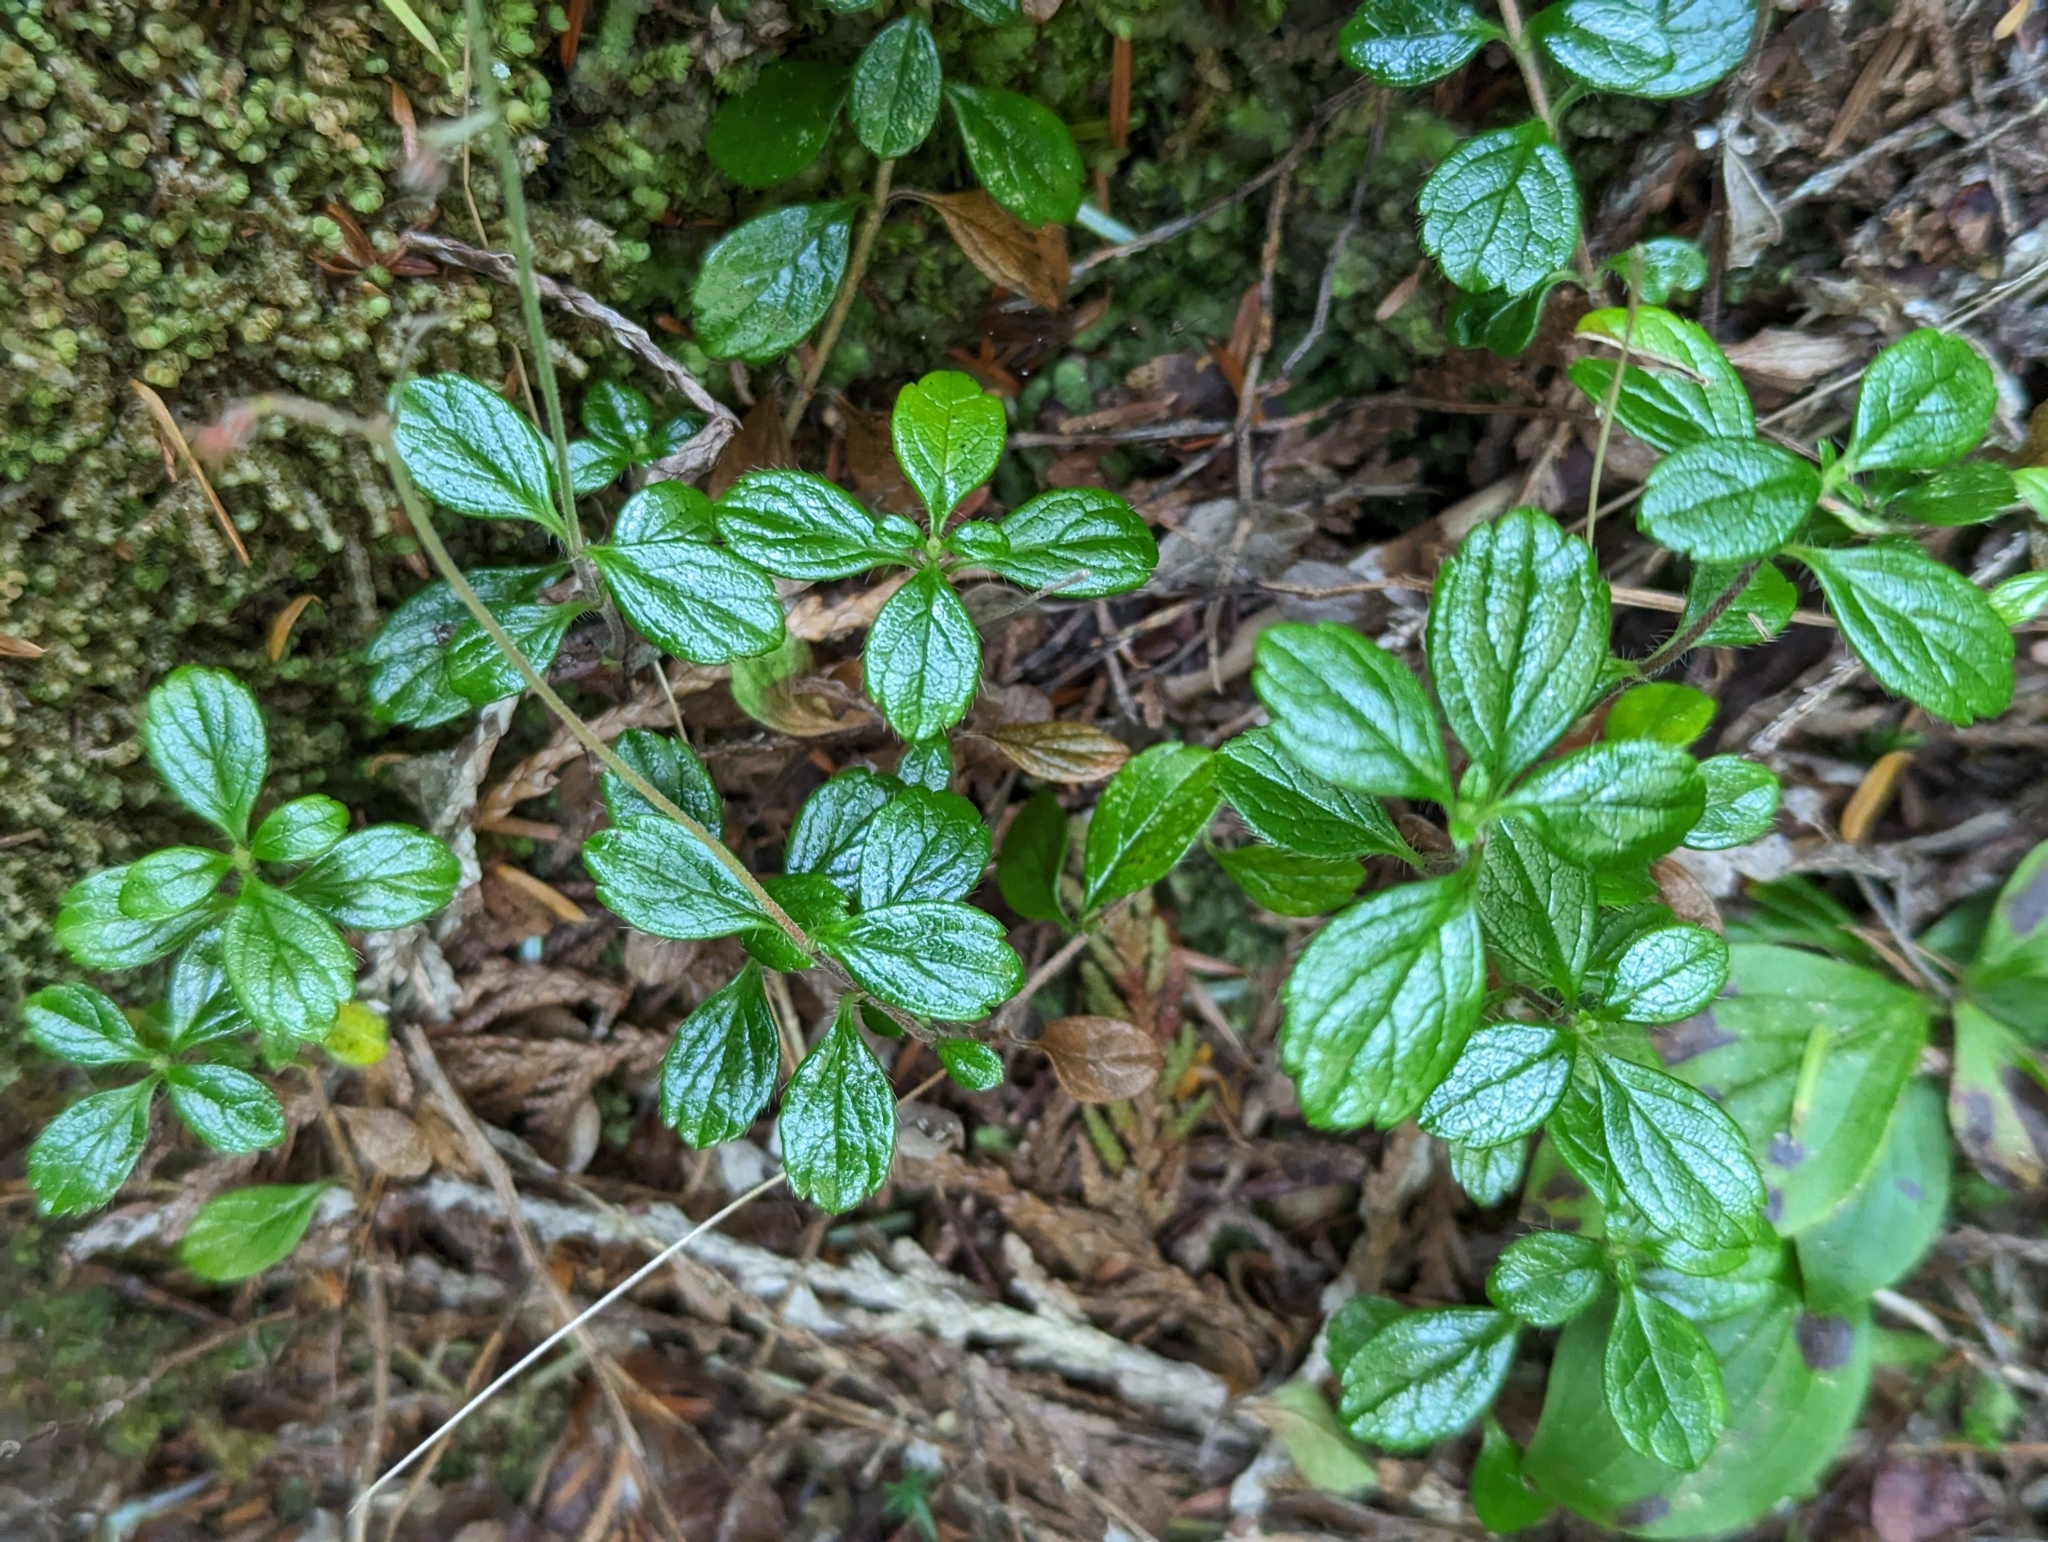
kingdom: Plantae
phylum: Tracheophyta
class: Magnoliopsida
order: Dipsacales
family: Caprifoliaceae
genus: Linnaea
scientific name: Linnaea borealis
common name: Twinflower
